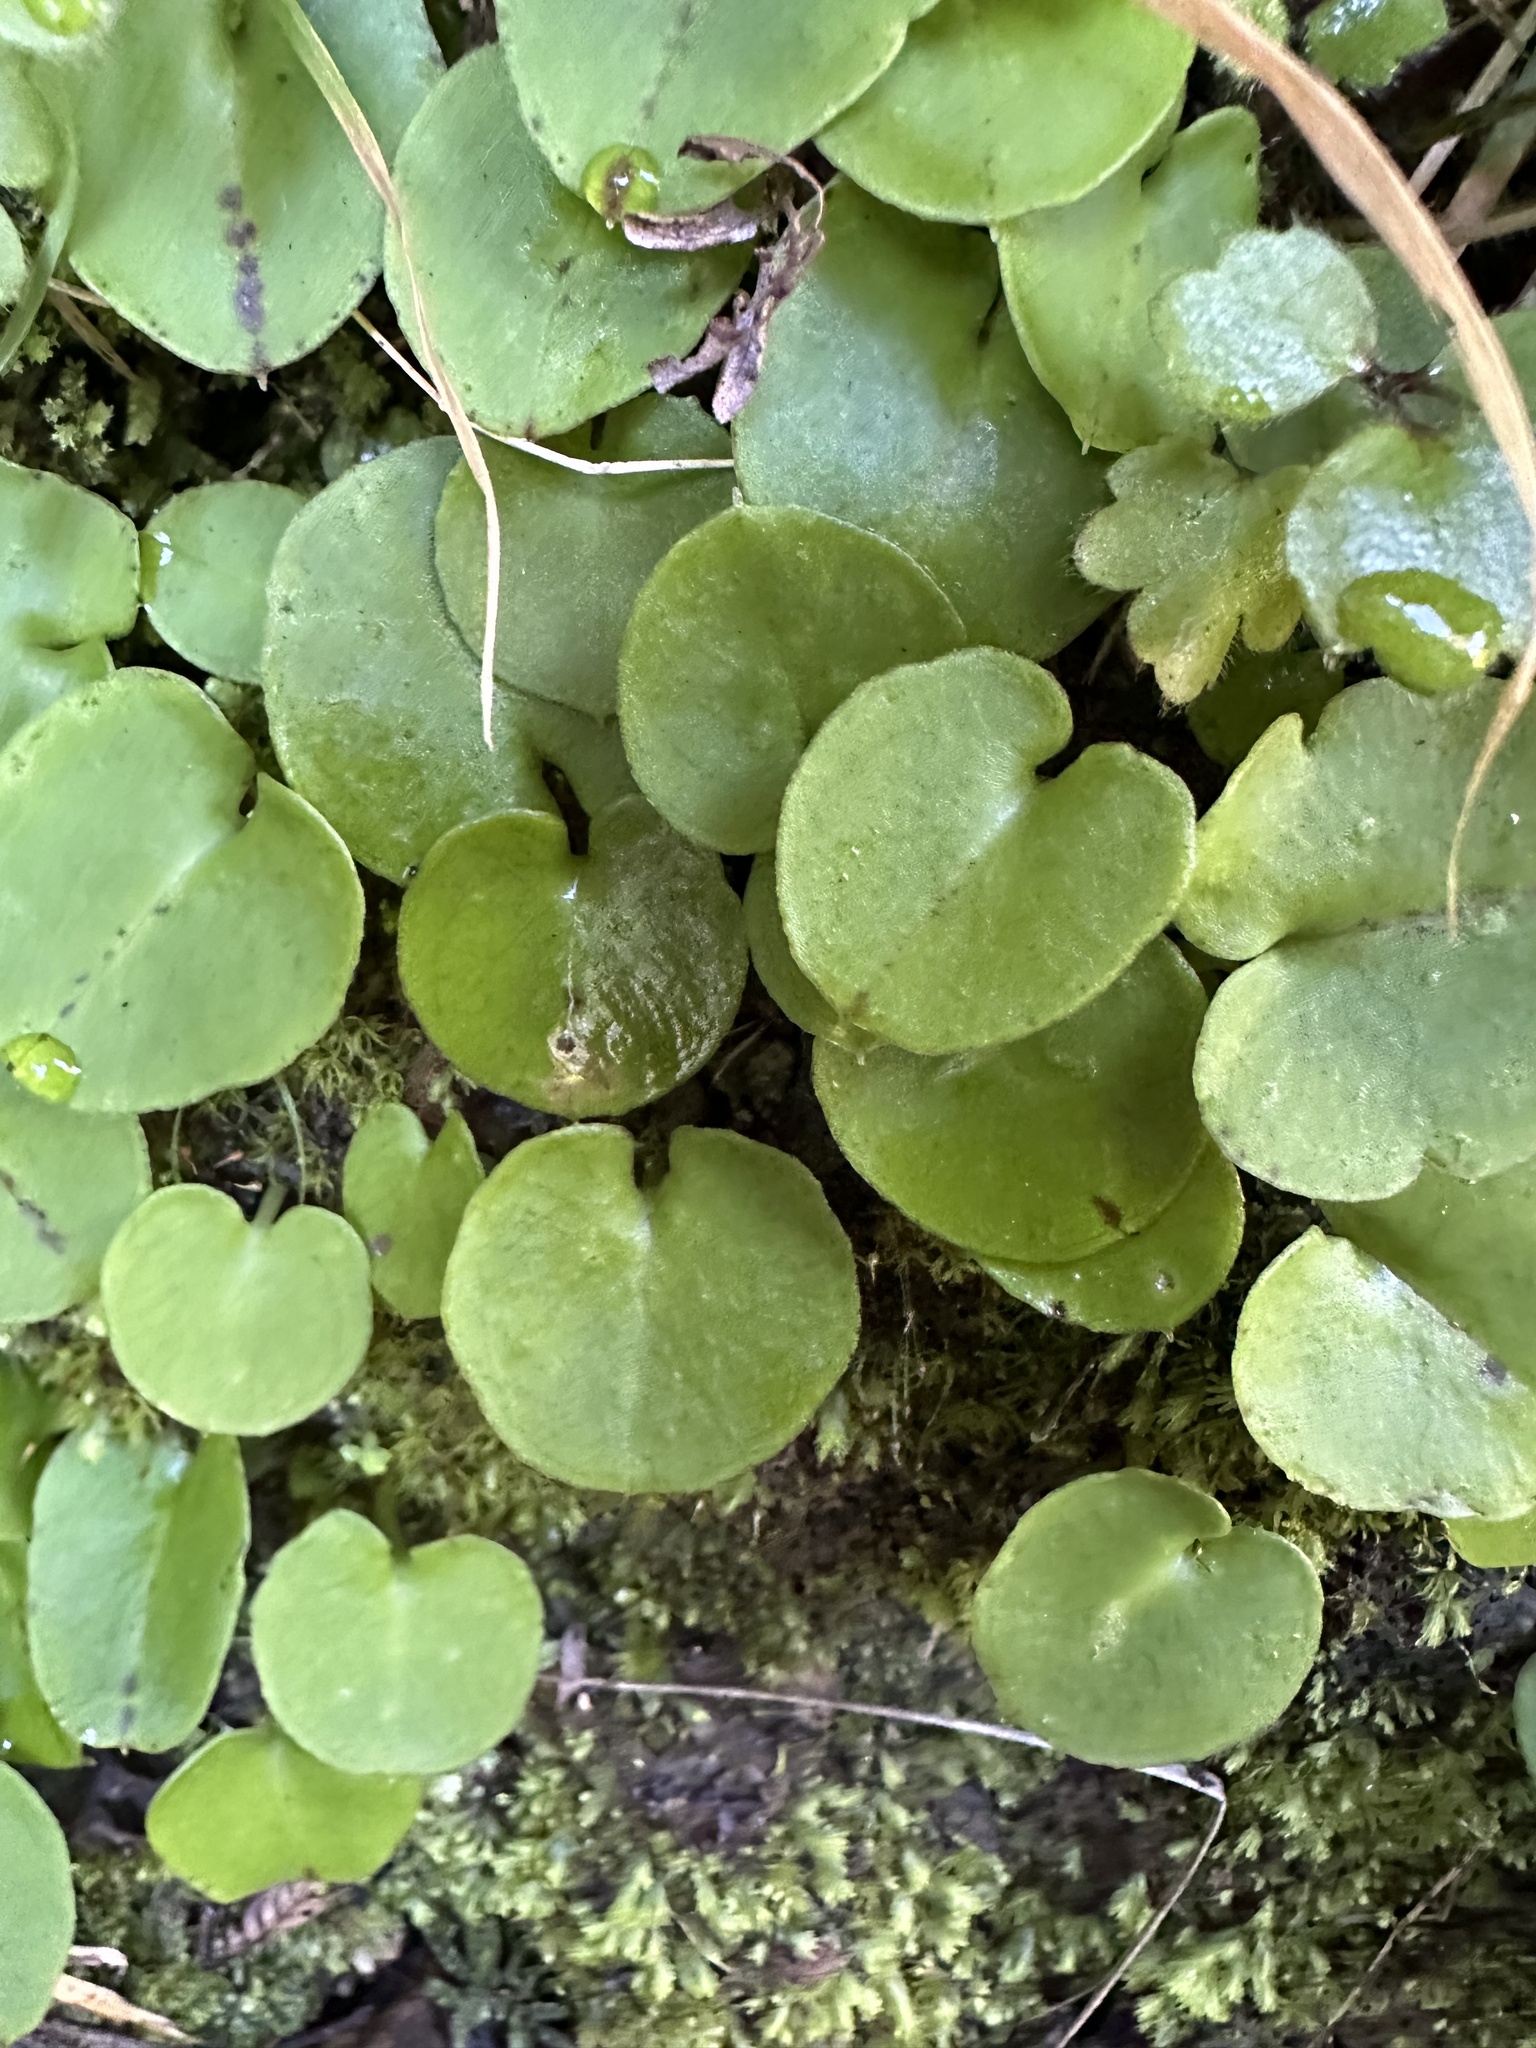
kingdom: Plantae
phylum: Tracheophyta
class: Liliopsida
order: Asparagales
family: Orchidaceae
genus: Corybas
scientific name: Corybas macranthus
